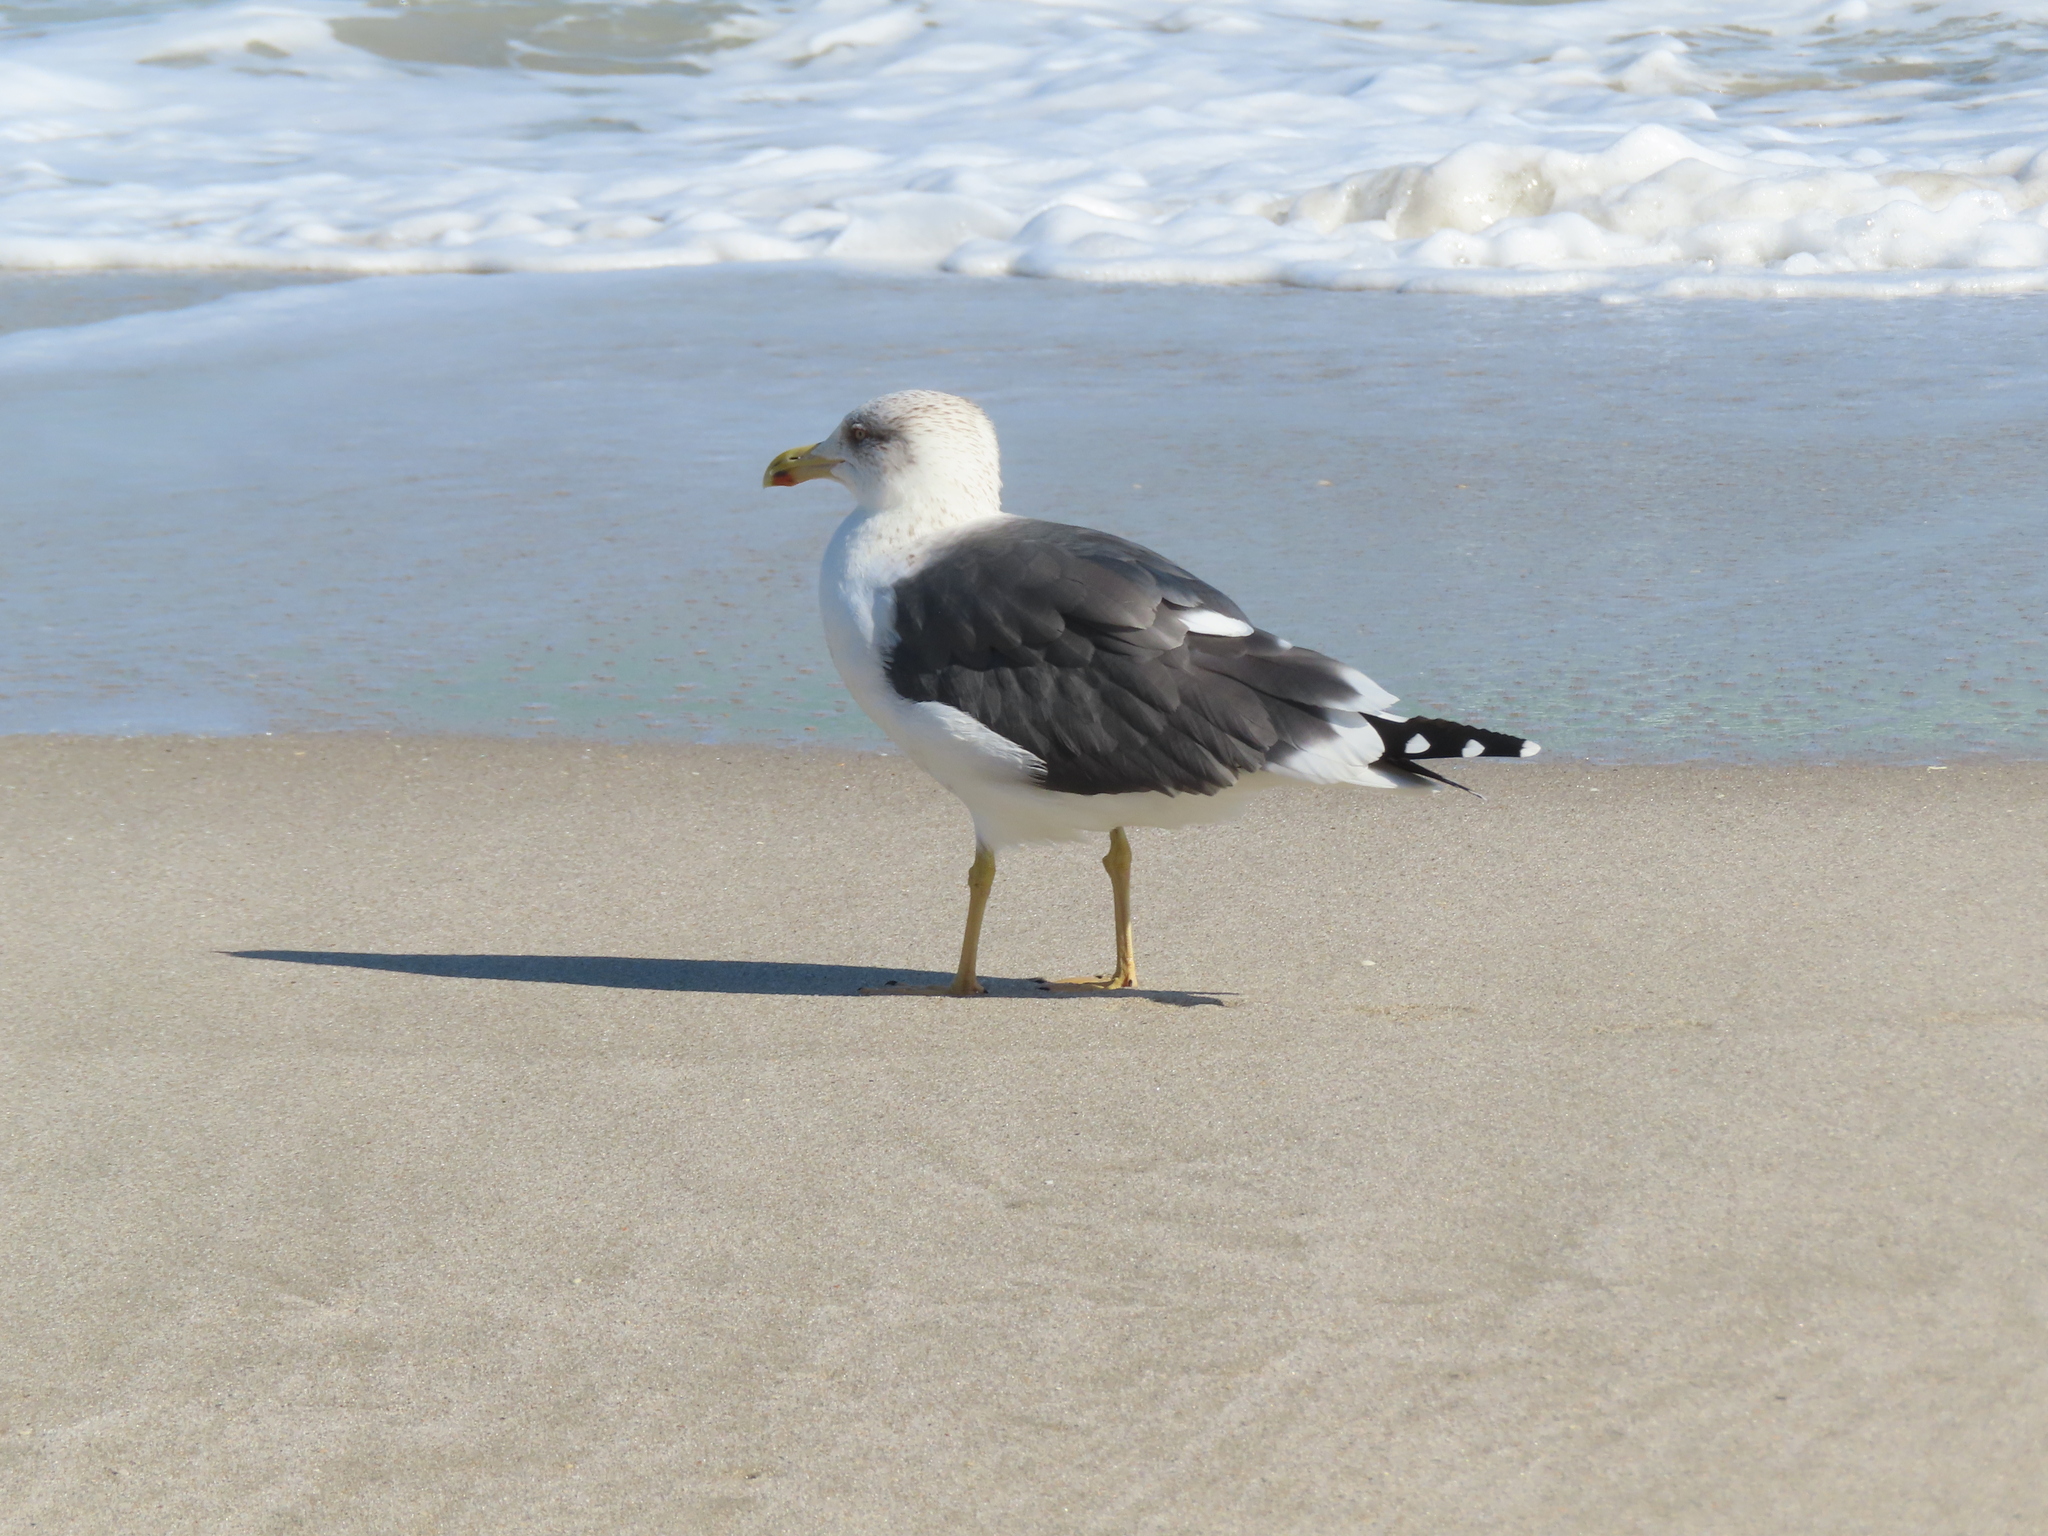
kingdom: Animalia
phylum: Chordata
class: Aves
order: Charadriiformes
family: Laridae
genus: Larus
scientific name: Larus fuscus
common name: Lesser black-backed gull
